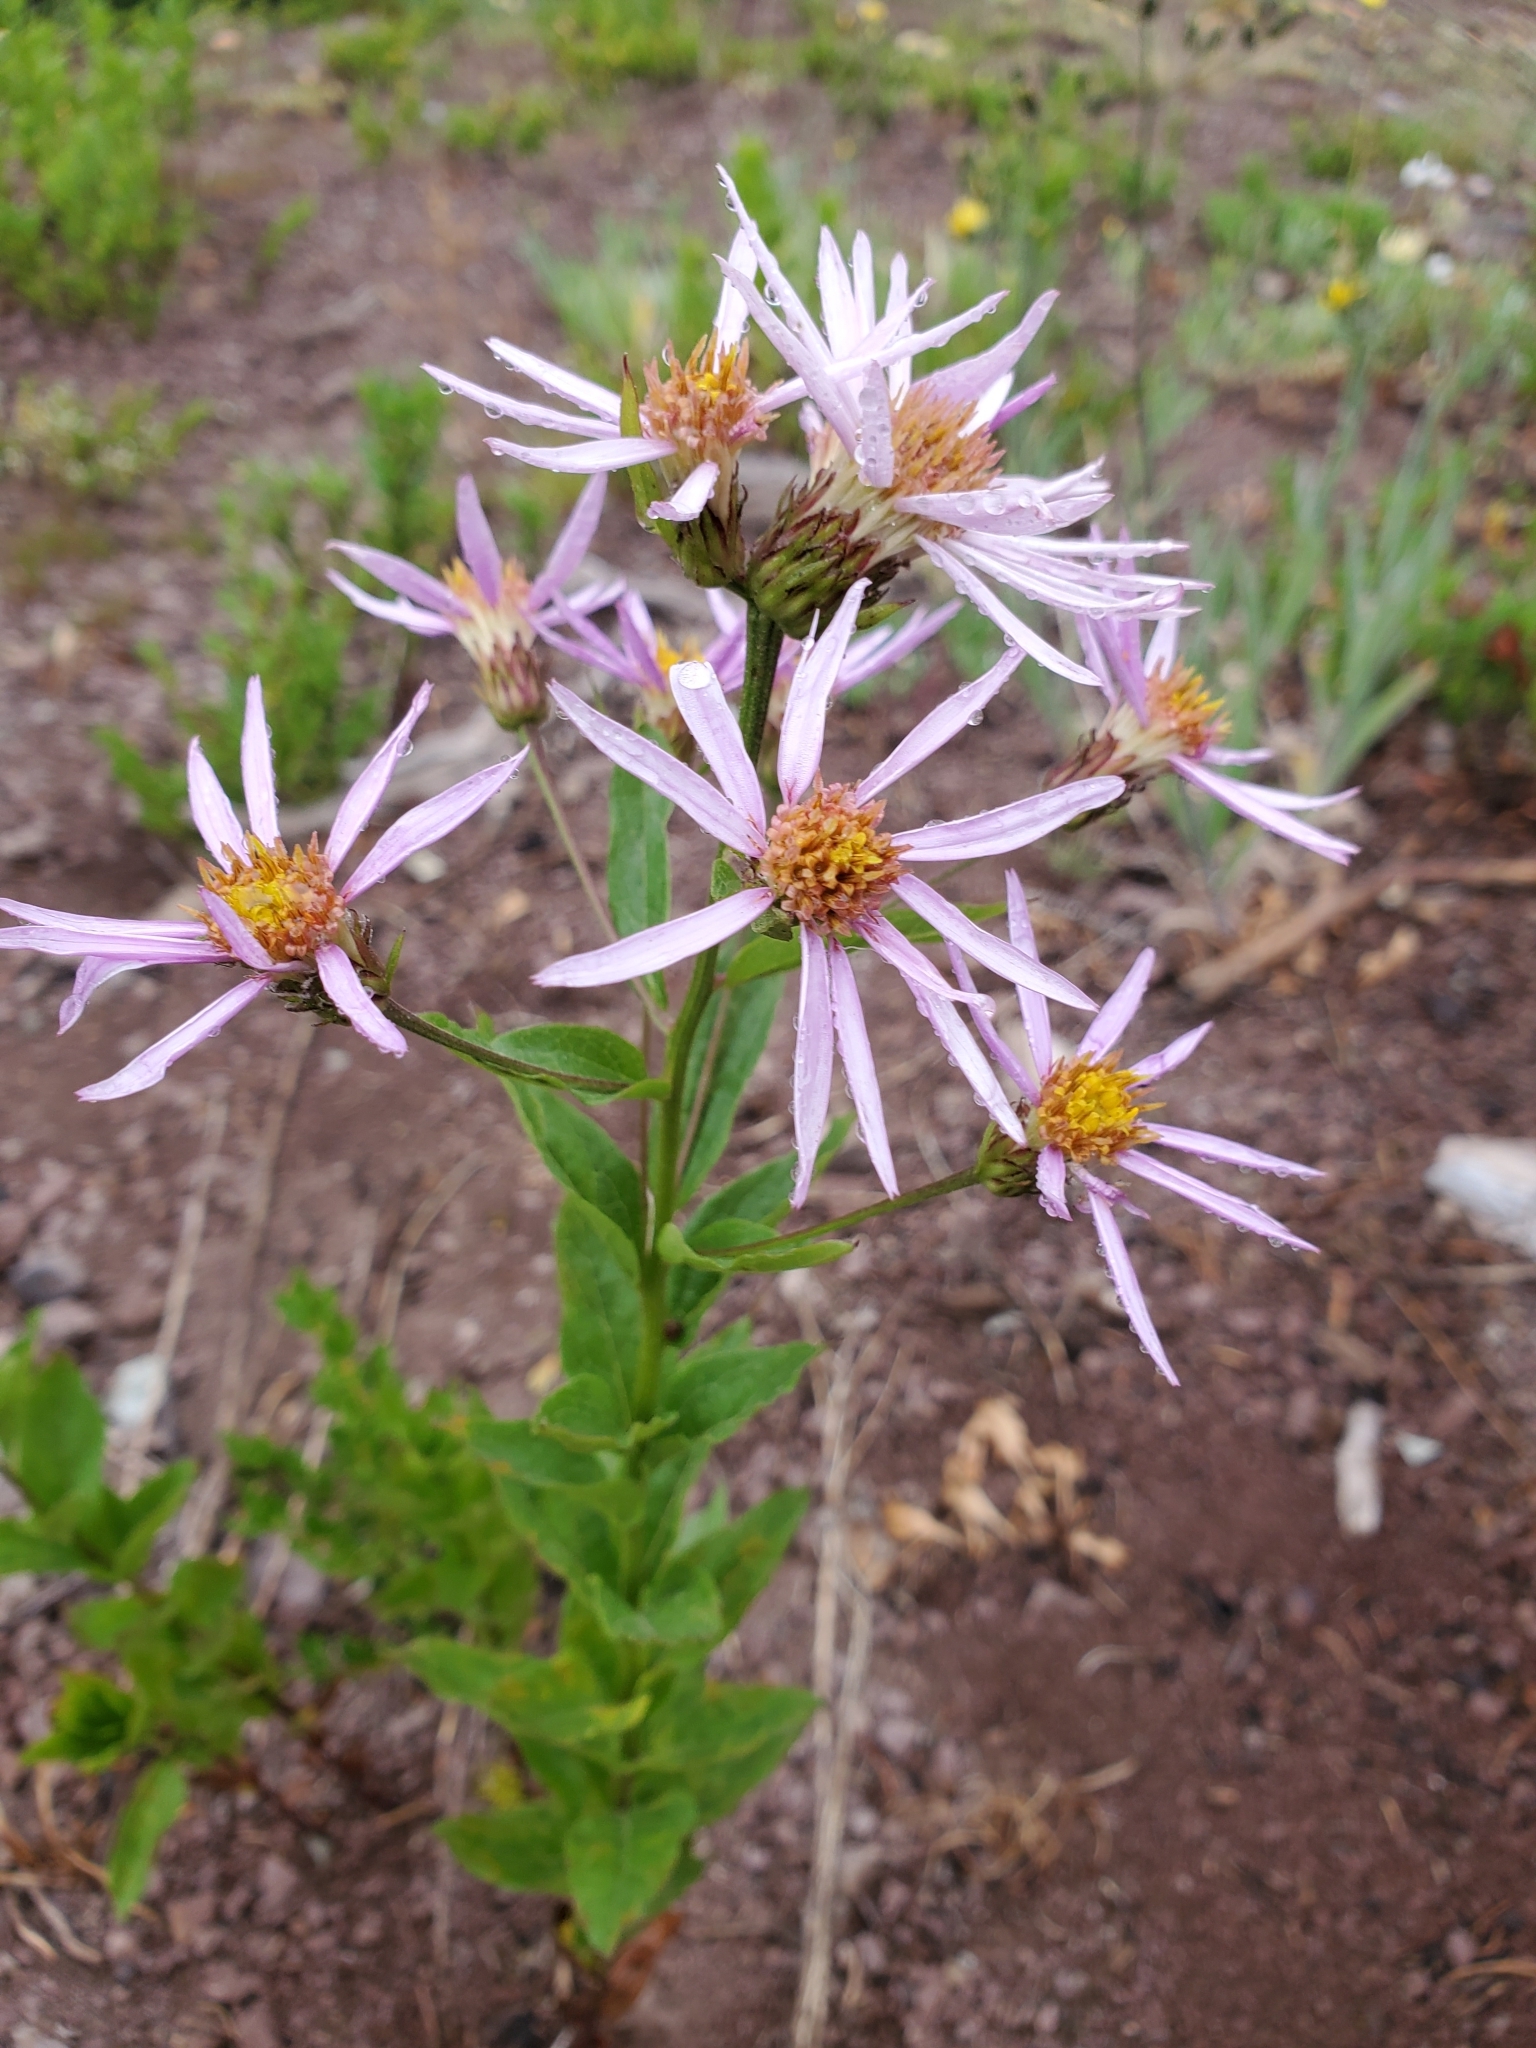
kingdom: Plantae
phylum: Tracheophyta
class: Magnoliopsida
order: Asterales
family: Asteraceae
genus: Eucephalus
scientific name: Eucephalus engelmannii
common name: Engelmann's aster
